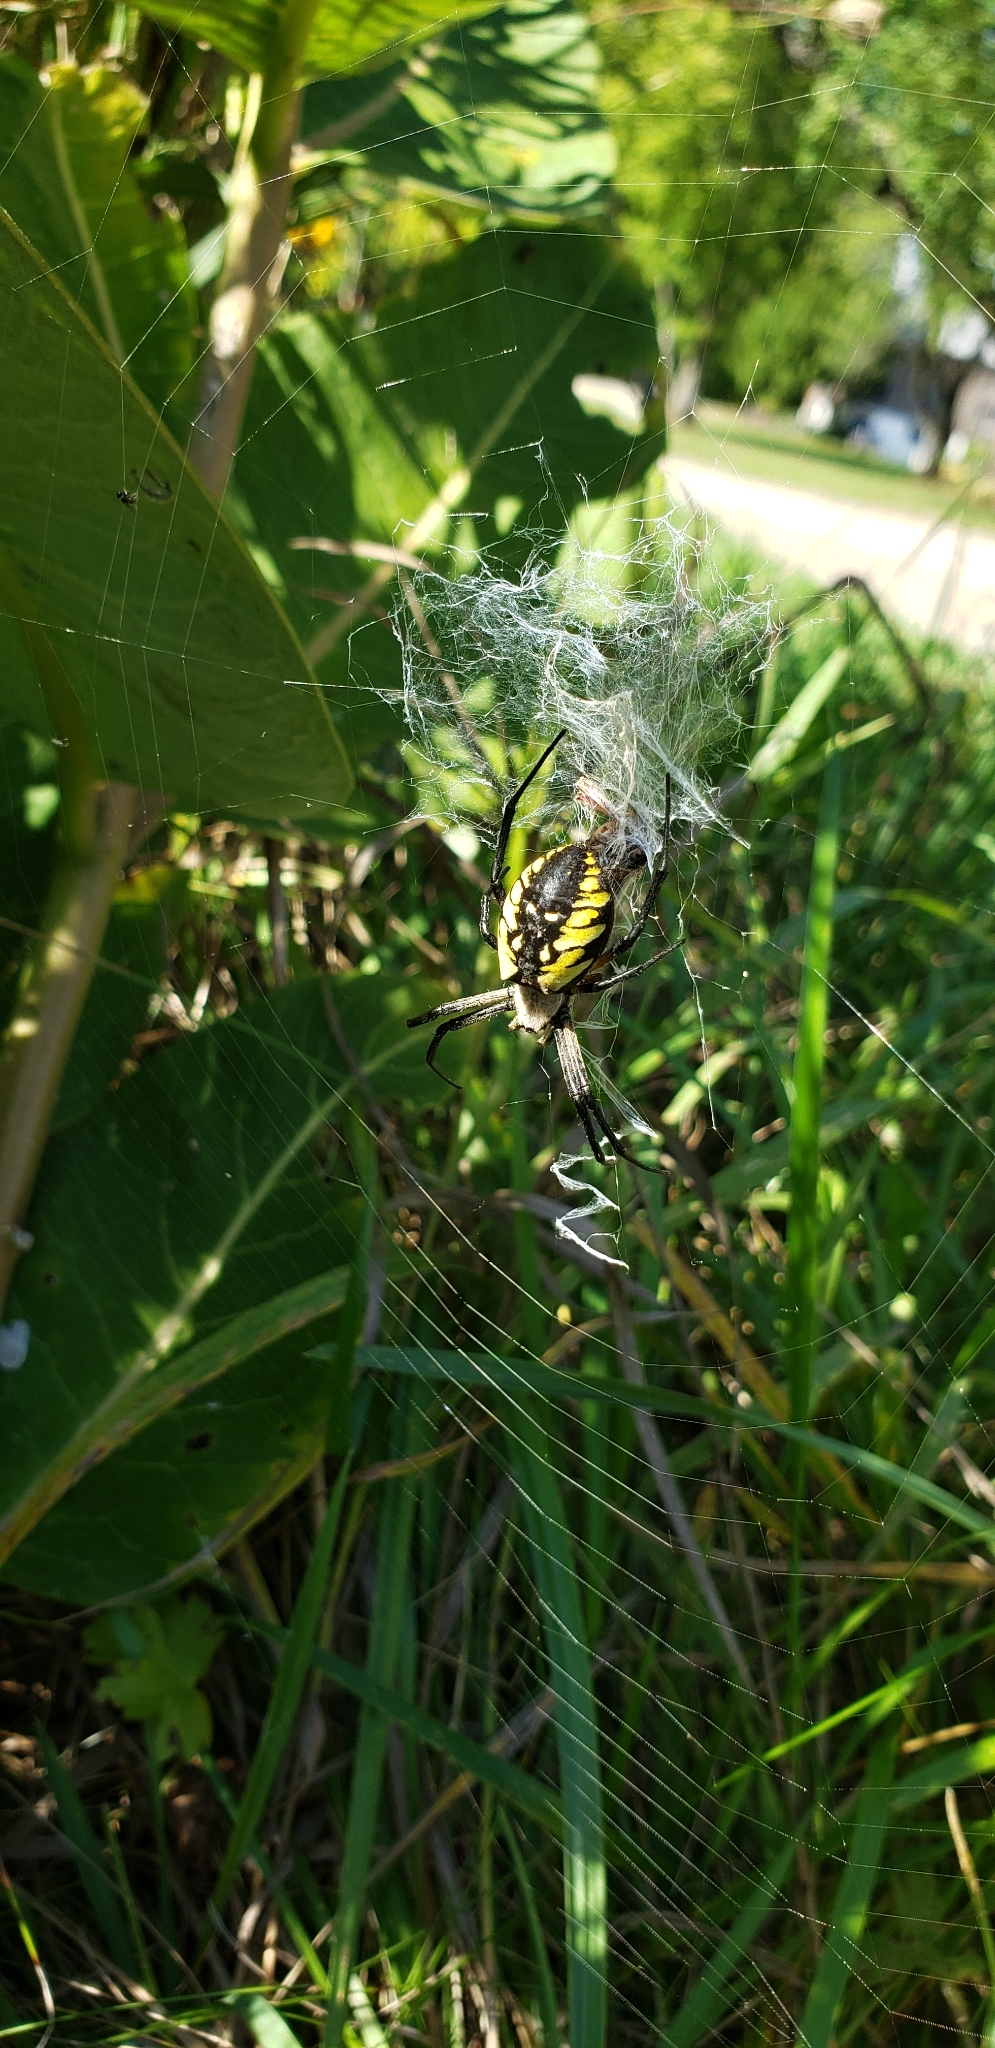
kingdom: Animalia
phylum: Arthropoda
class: Arachnida
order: Araneae
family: Araneidae
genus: Argiope
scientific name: Argiope aurantia
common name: Orb weavers
